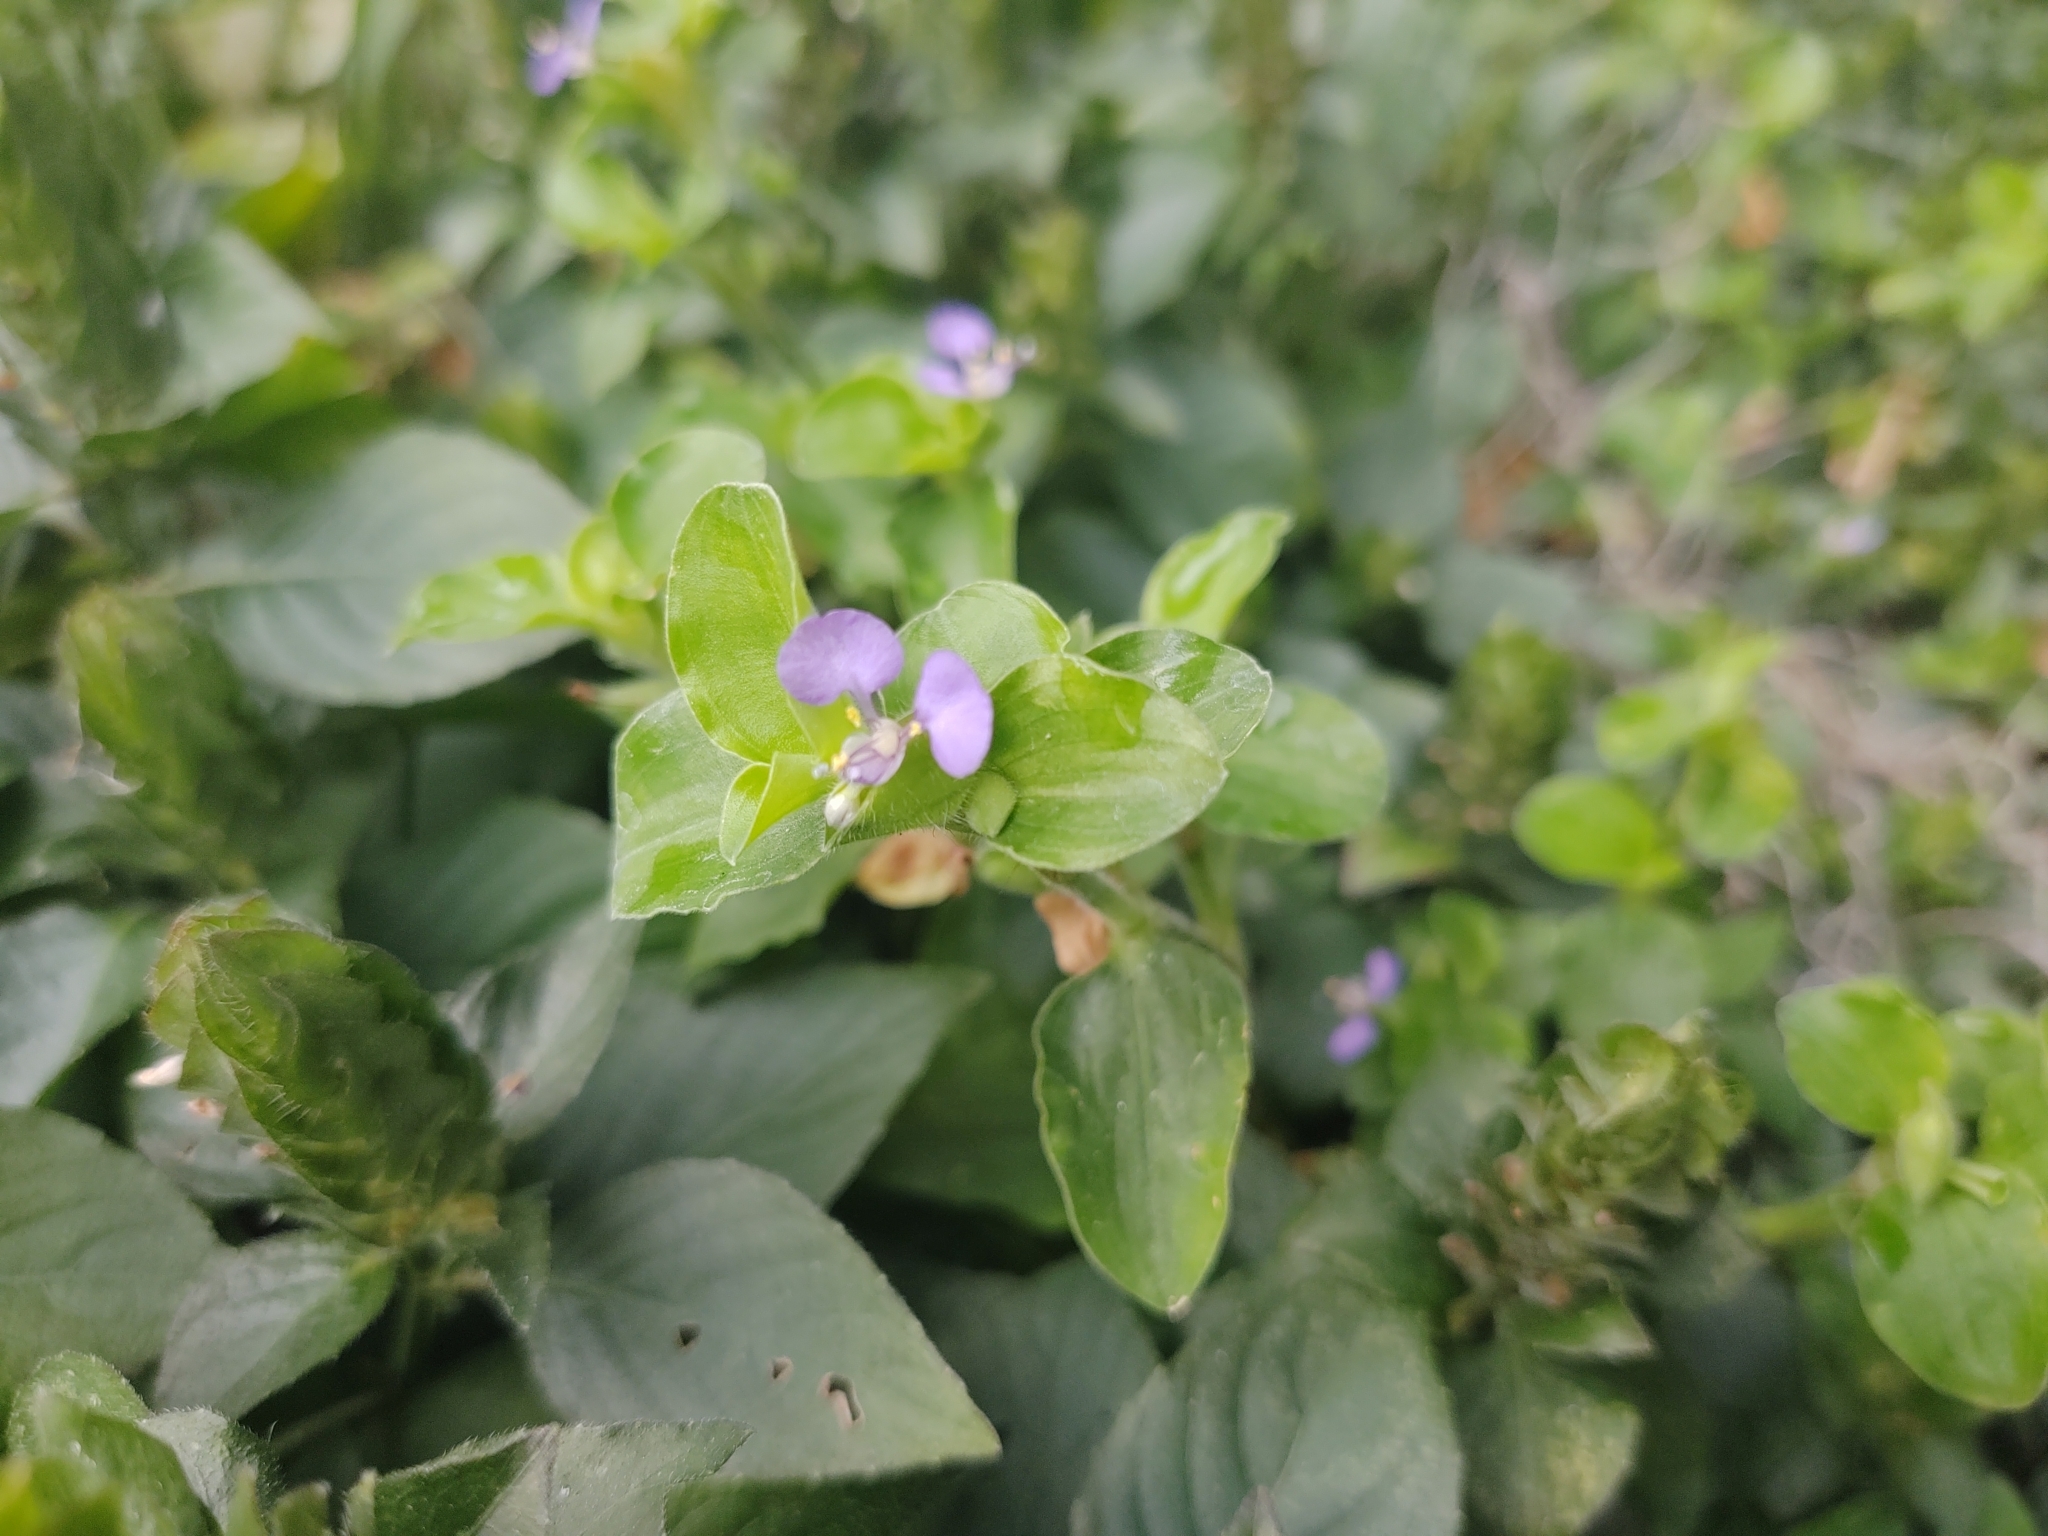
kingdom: Plantae
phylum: Tracheophyta
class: Liliopsida
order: Commelinales
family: Commelinaceae
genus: Commelina
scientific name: Commelina benghalensis
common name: Jio
